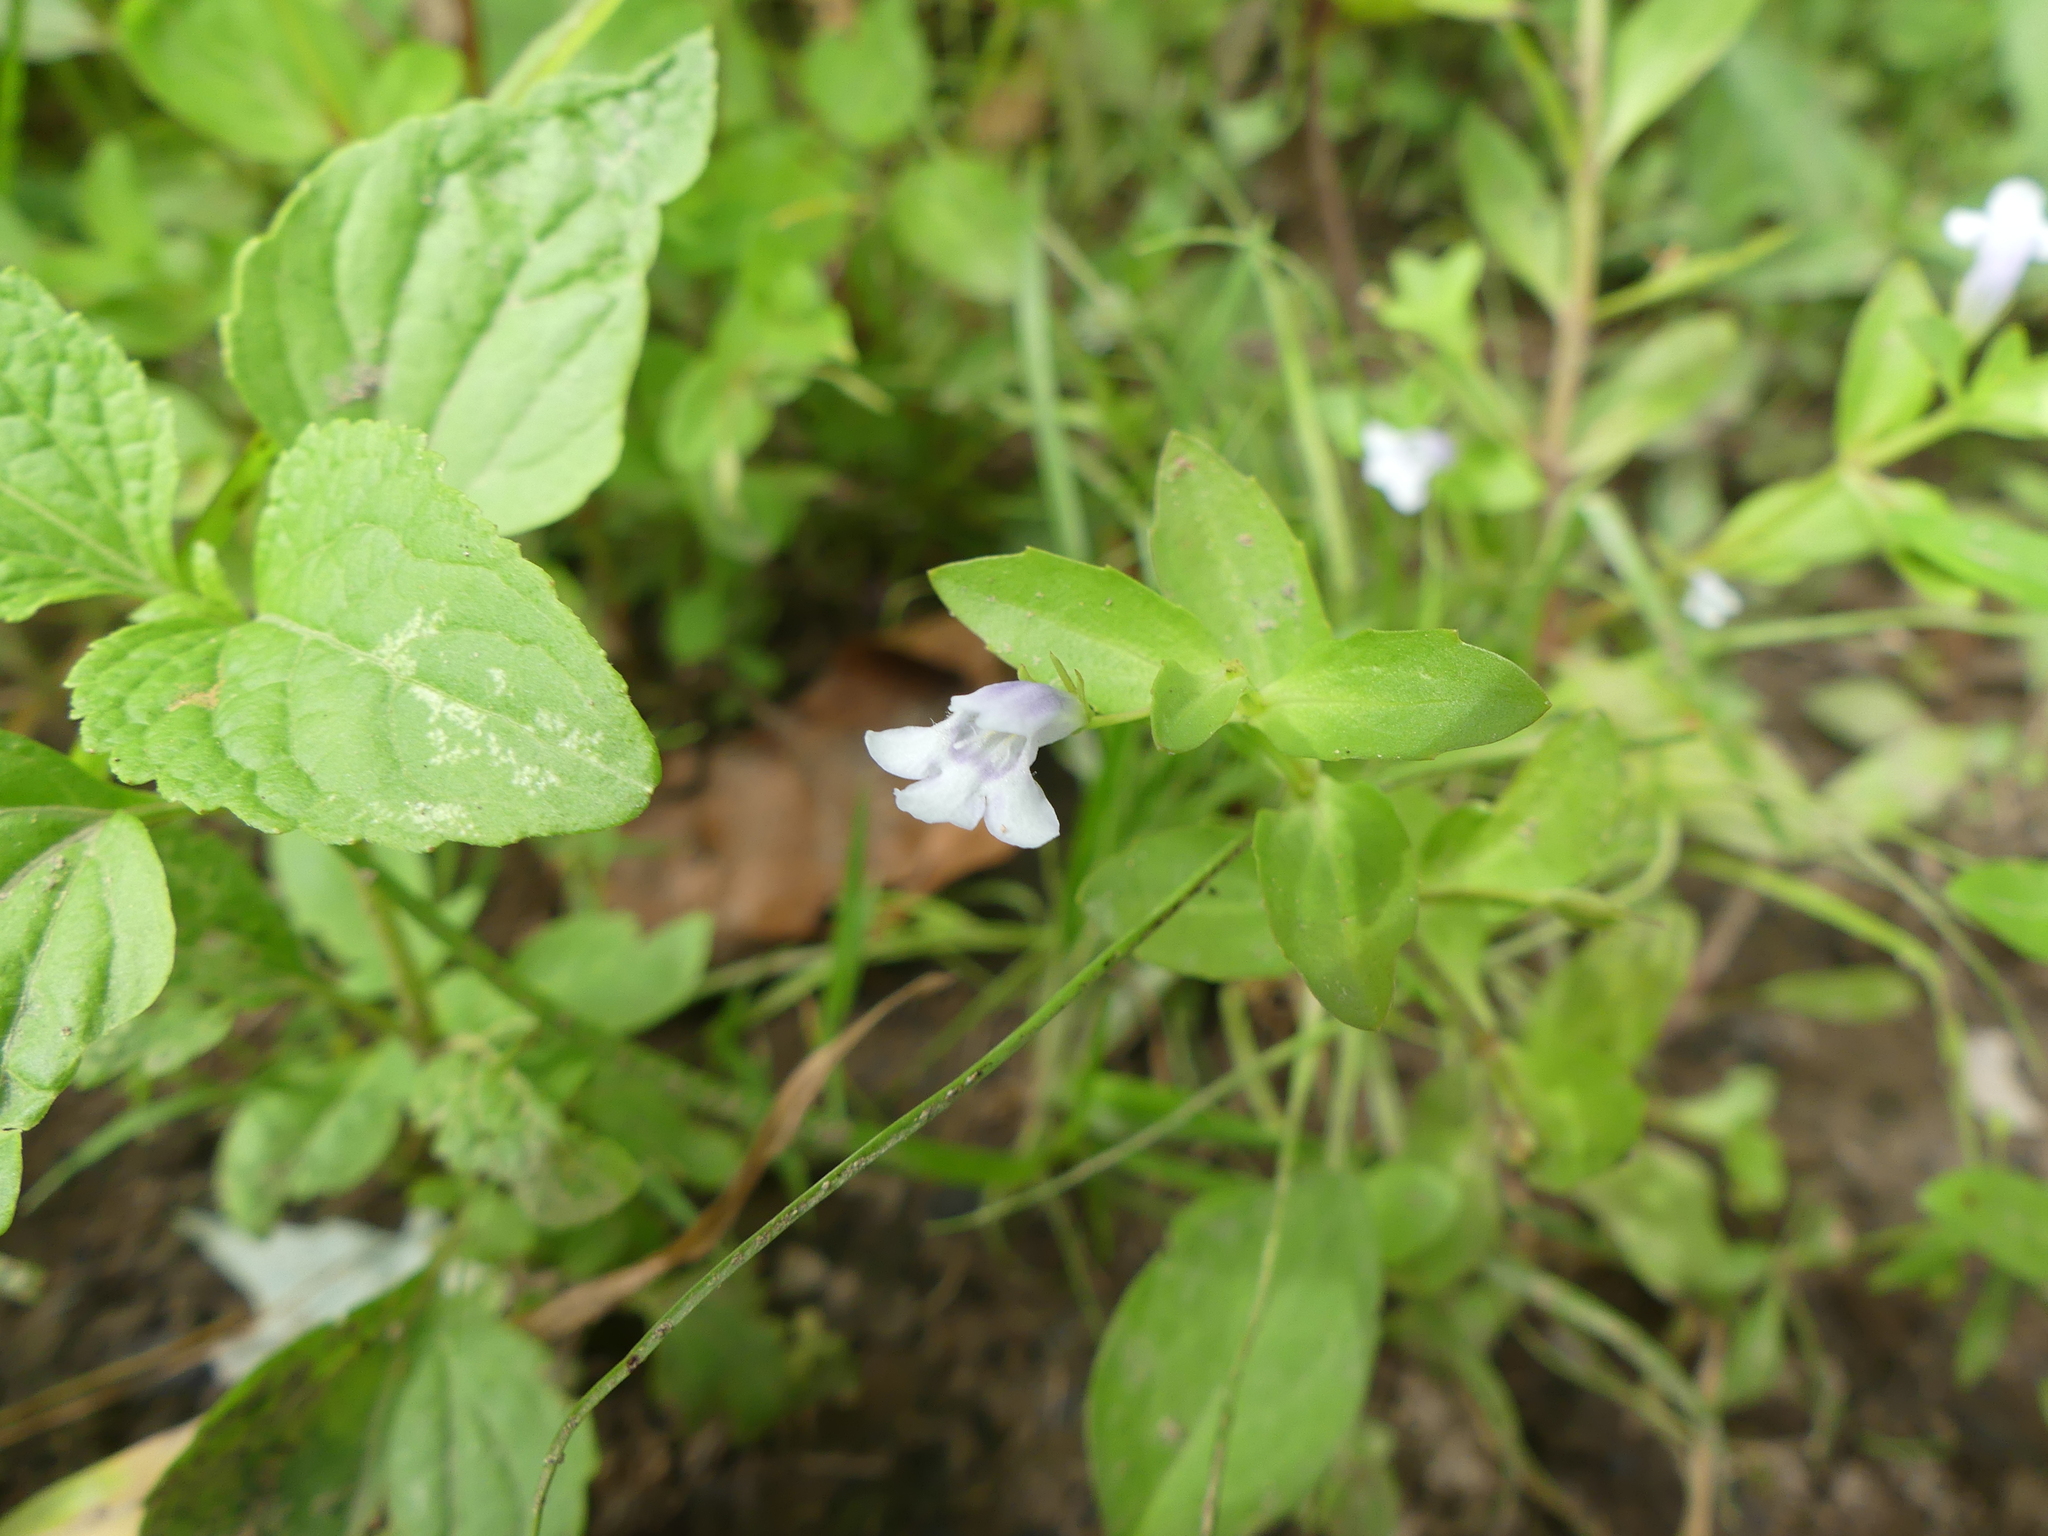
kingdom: Plantae
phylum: Tracheophyta
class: Magnoliopsida
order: Lamiales
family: Linderniaceae
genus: Lindernia
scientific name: Lindernia dubia
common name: Annual false pimpernel
